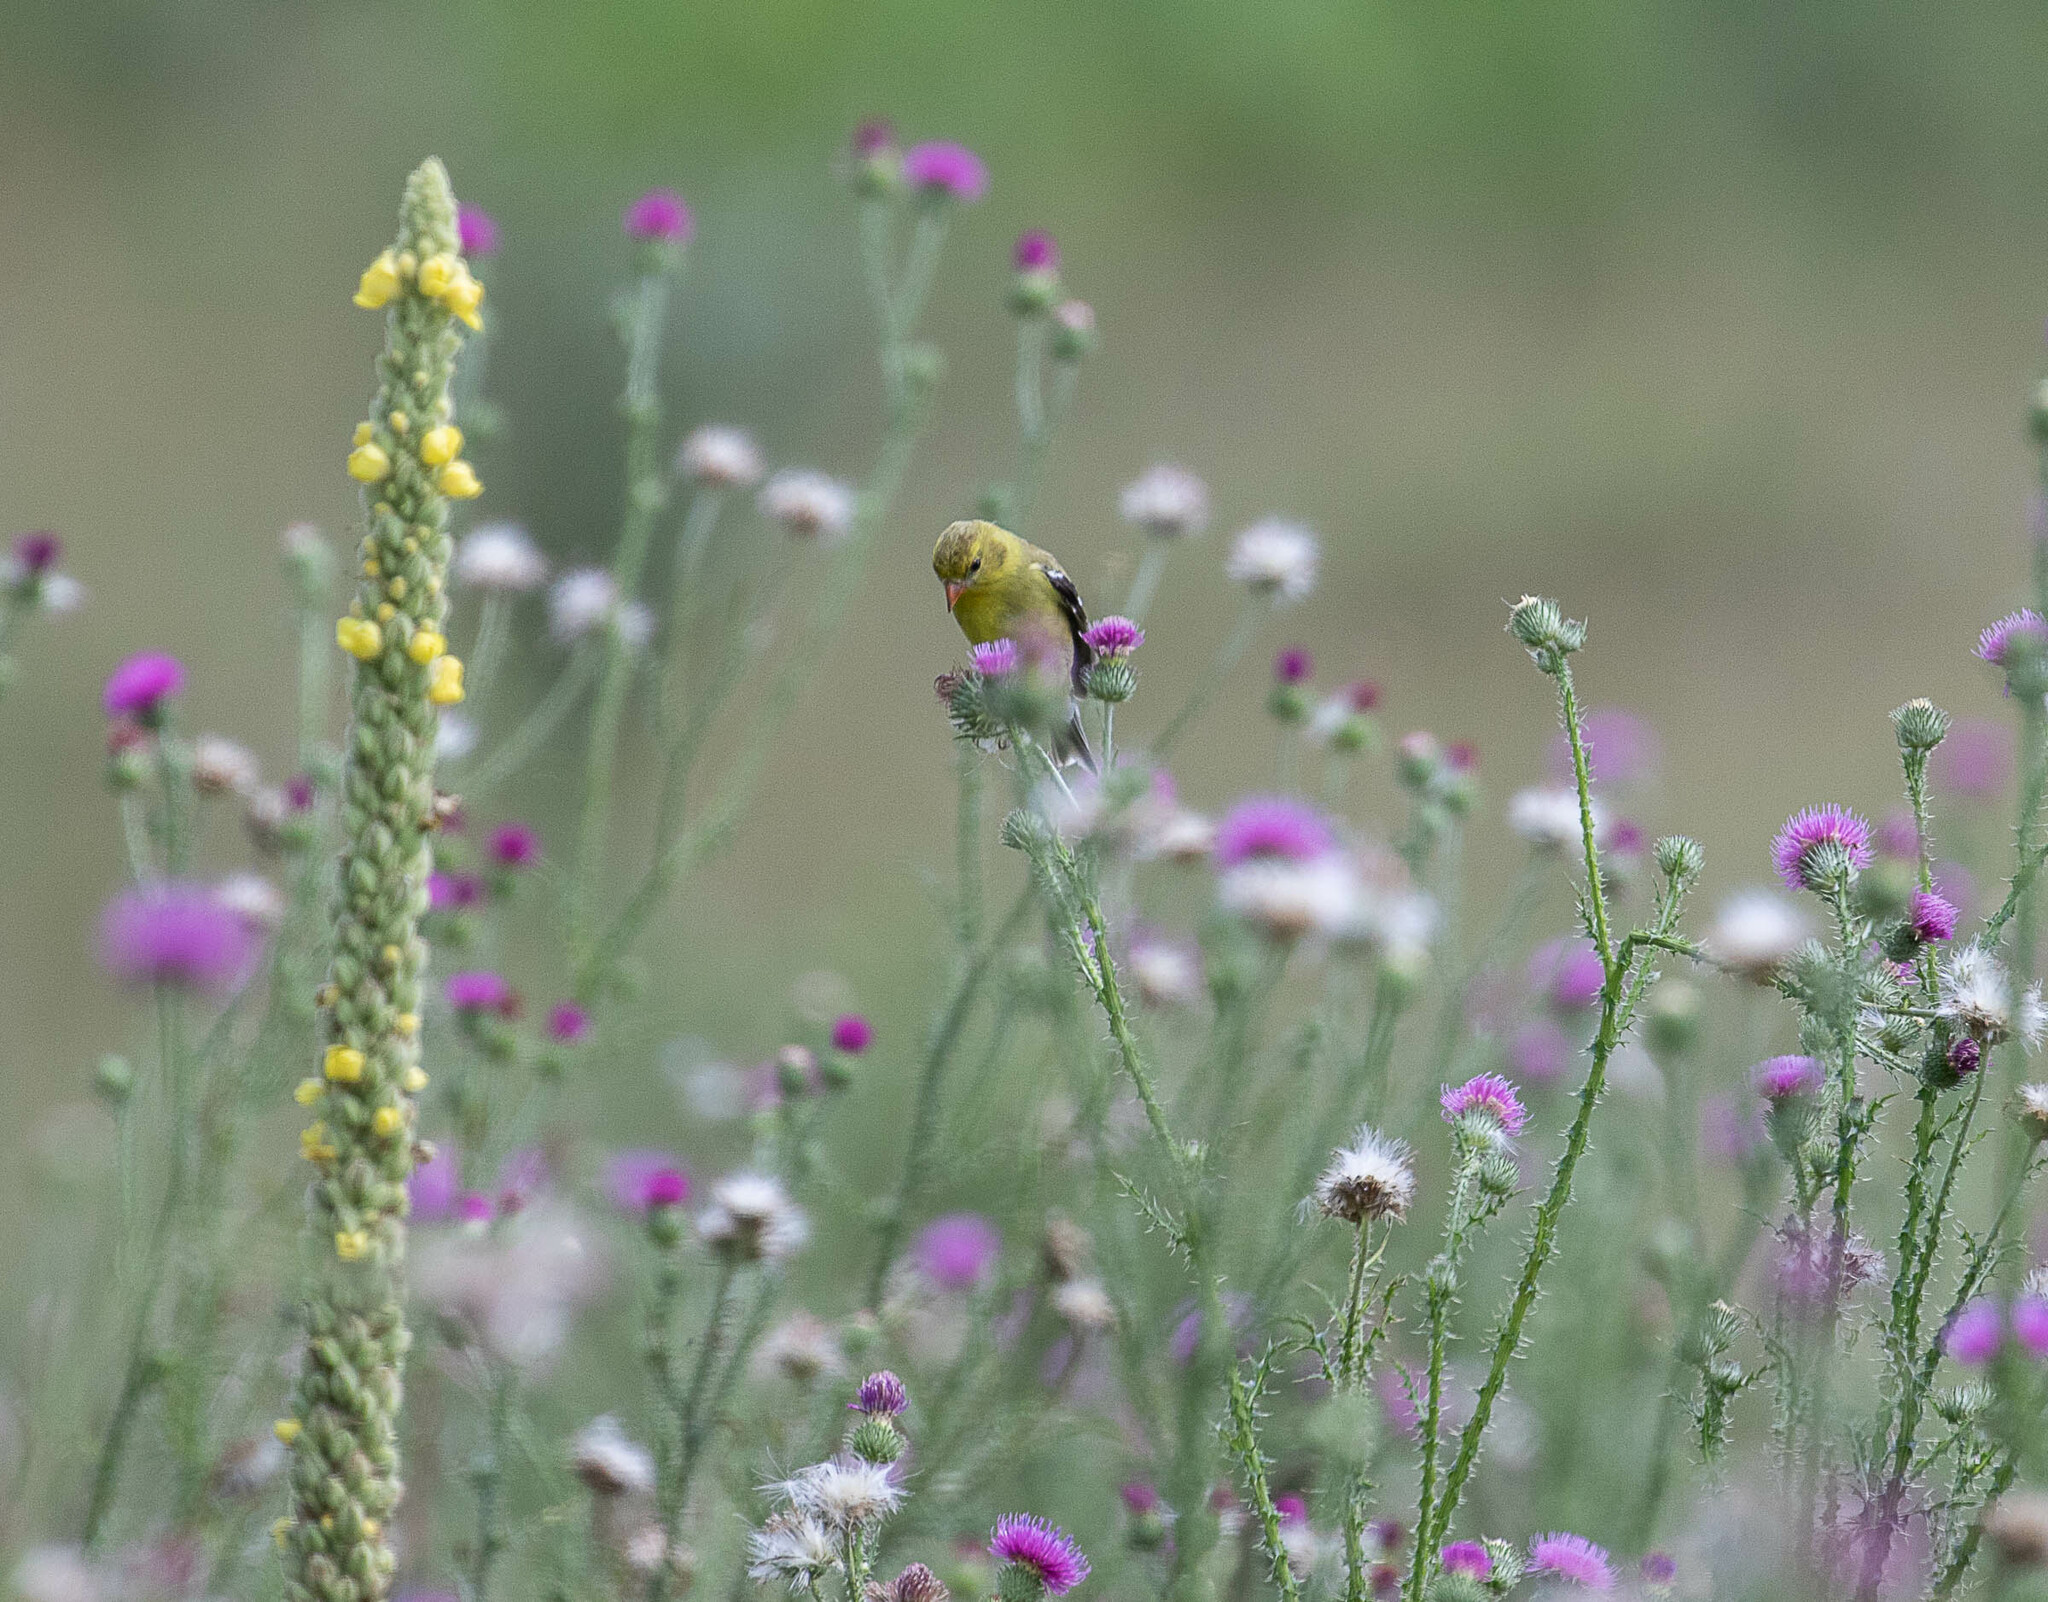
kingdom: Animalia
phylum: Chordata
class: Aves
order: Passeriformes
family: Fringillidae
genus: Spinus
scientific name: Spinus tristis
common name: American goldfinch
